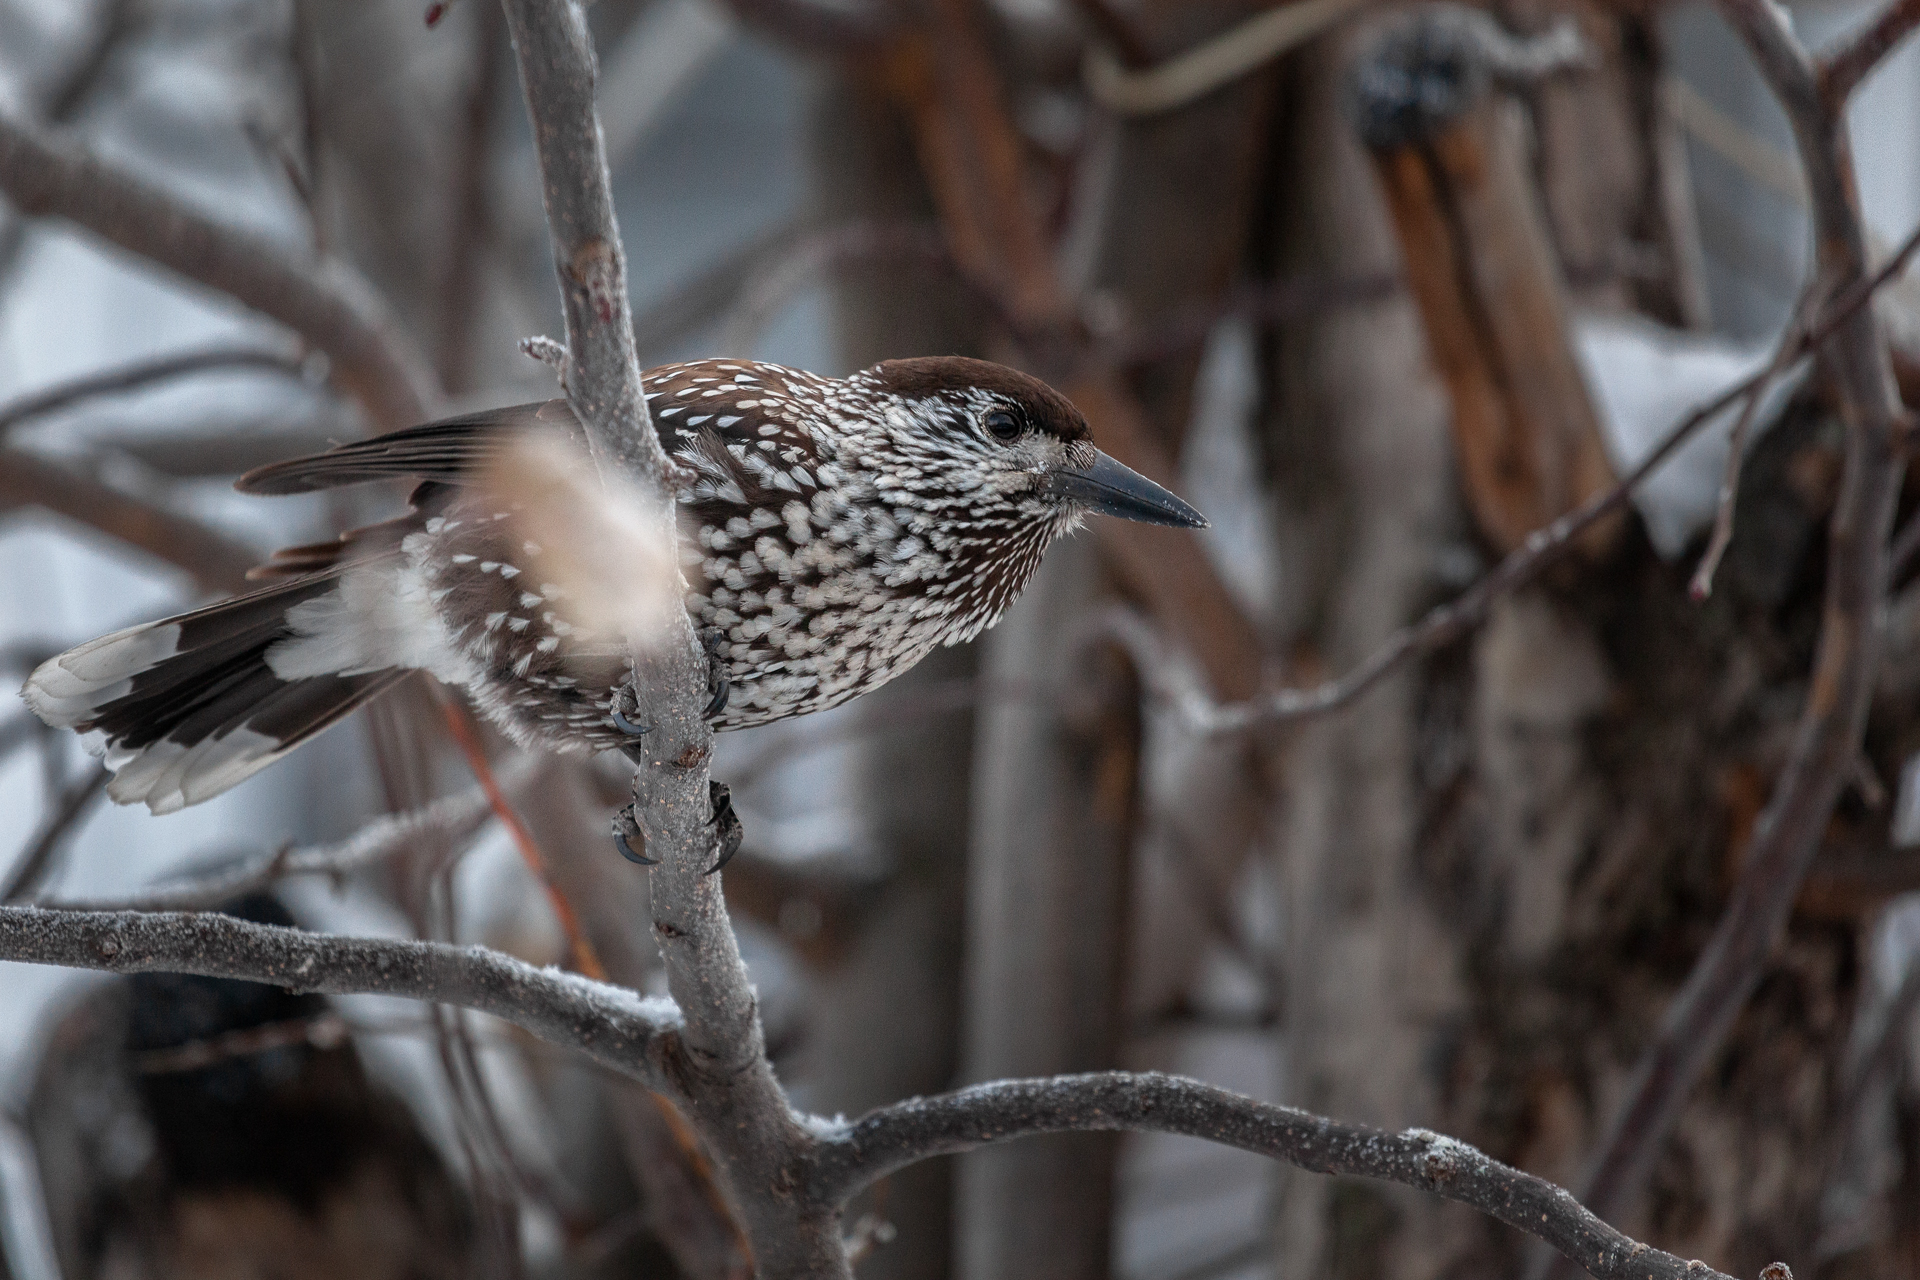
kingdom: Animalia
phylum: Chordata
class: Aves
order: Passeriformes
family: Corvidae
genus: Nucifraga
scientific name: Nucifraga caryocatactes
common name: Spotted nutcracker
